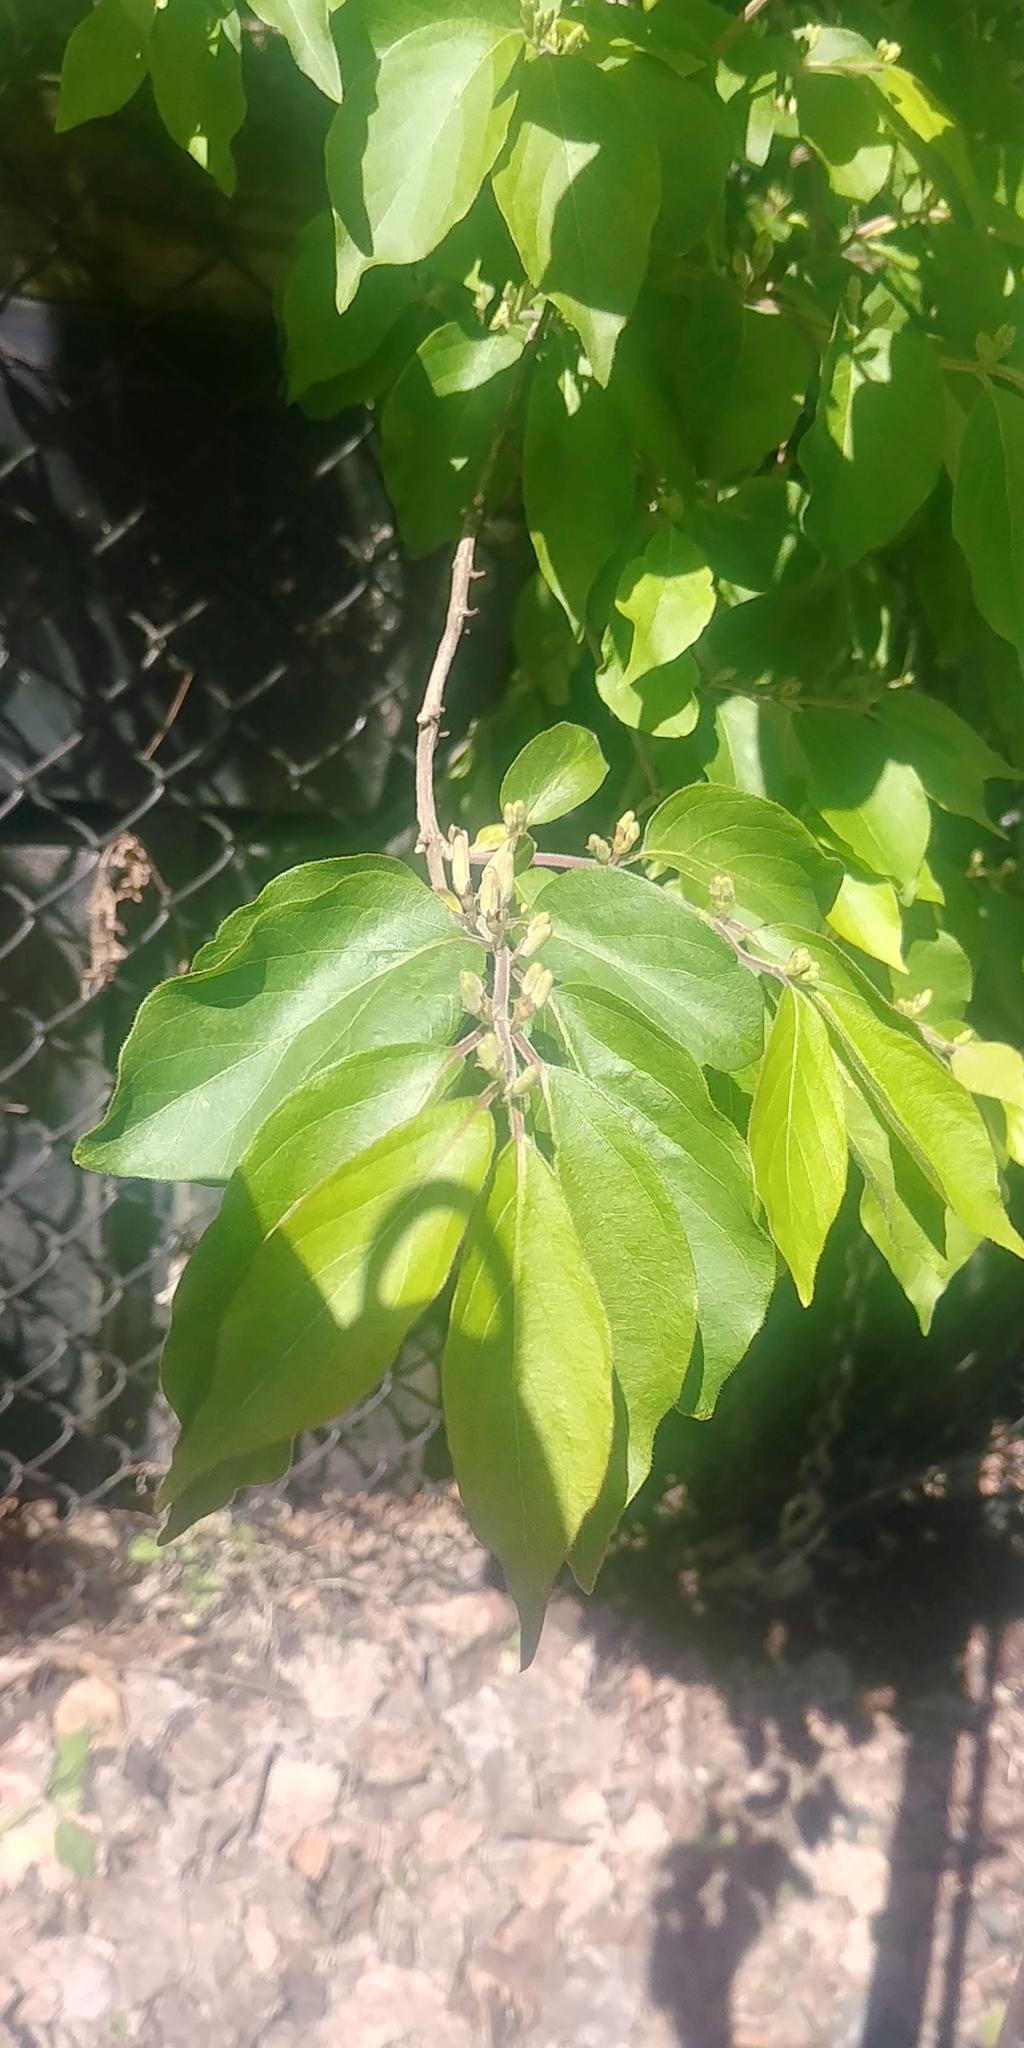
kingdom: Plantae
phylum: Tracheophyta
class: Magnoliopsida
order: Dipsacales
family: Caprifoliaceae
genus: Lonicera
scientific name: Lonicera maackii
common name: Amur honeysuckle
